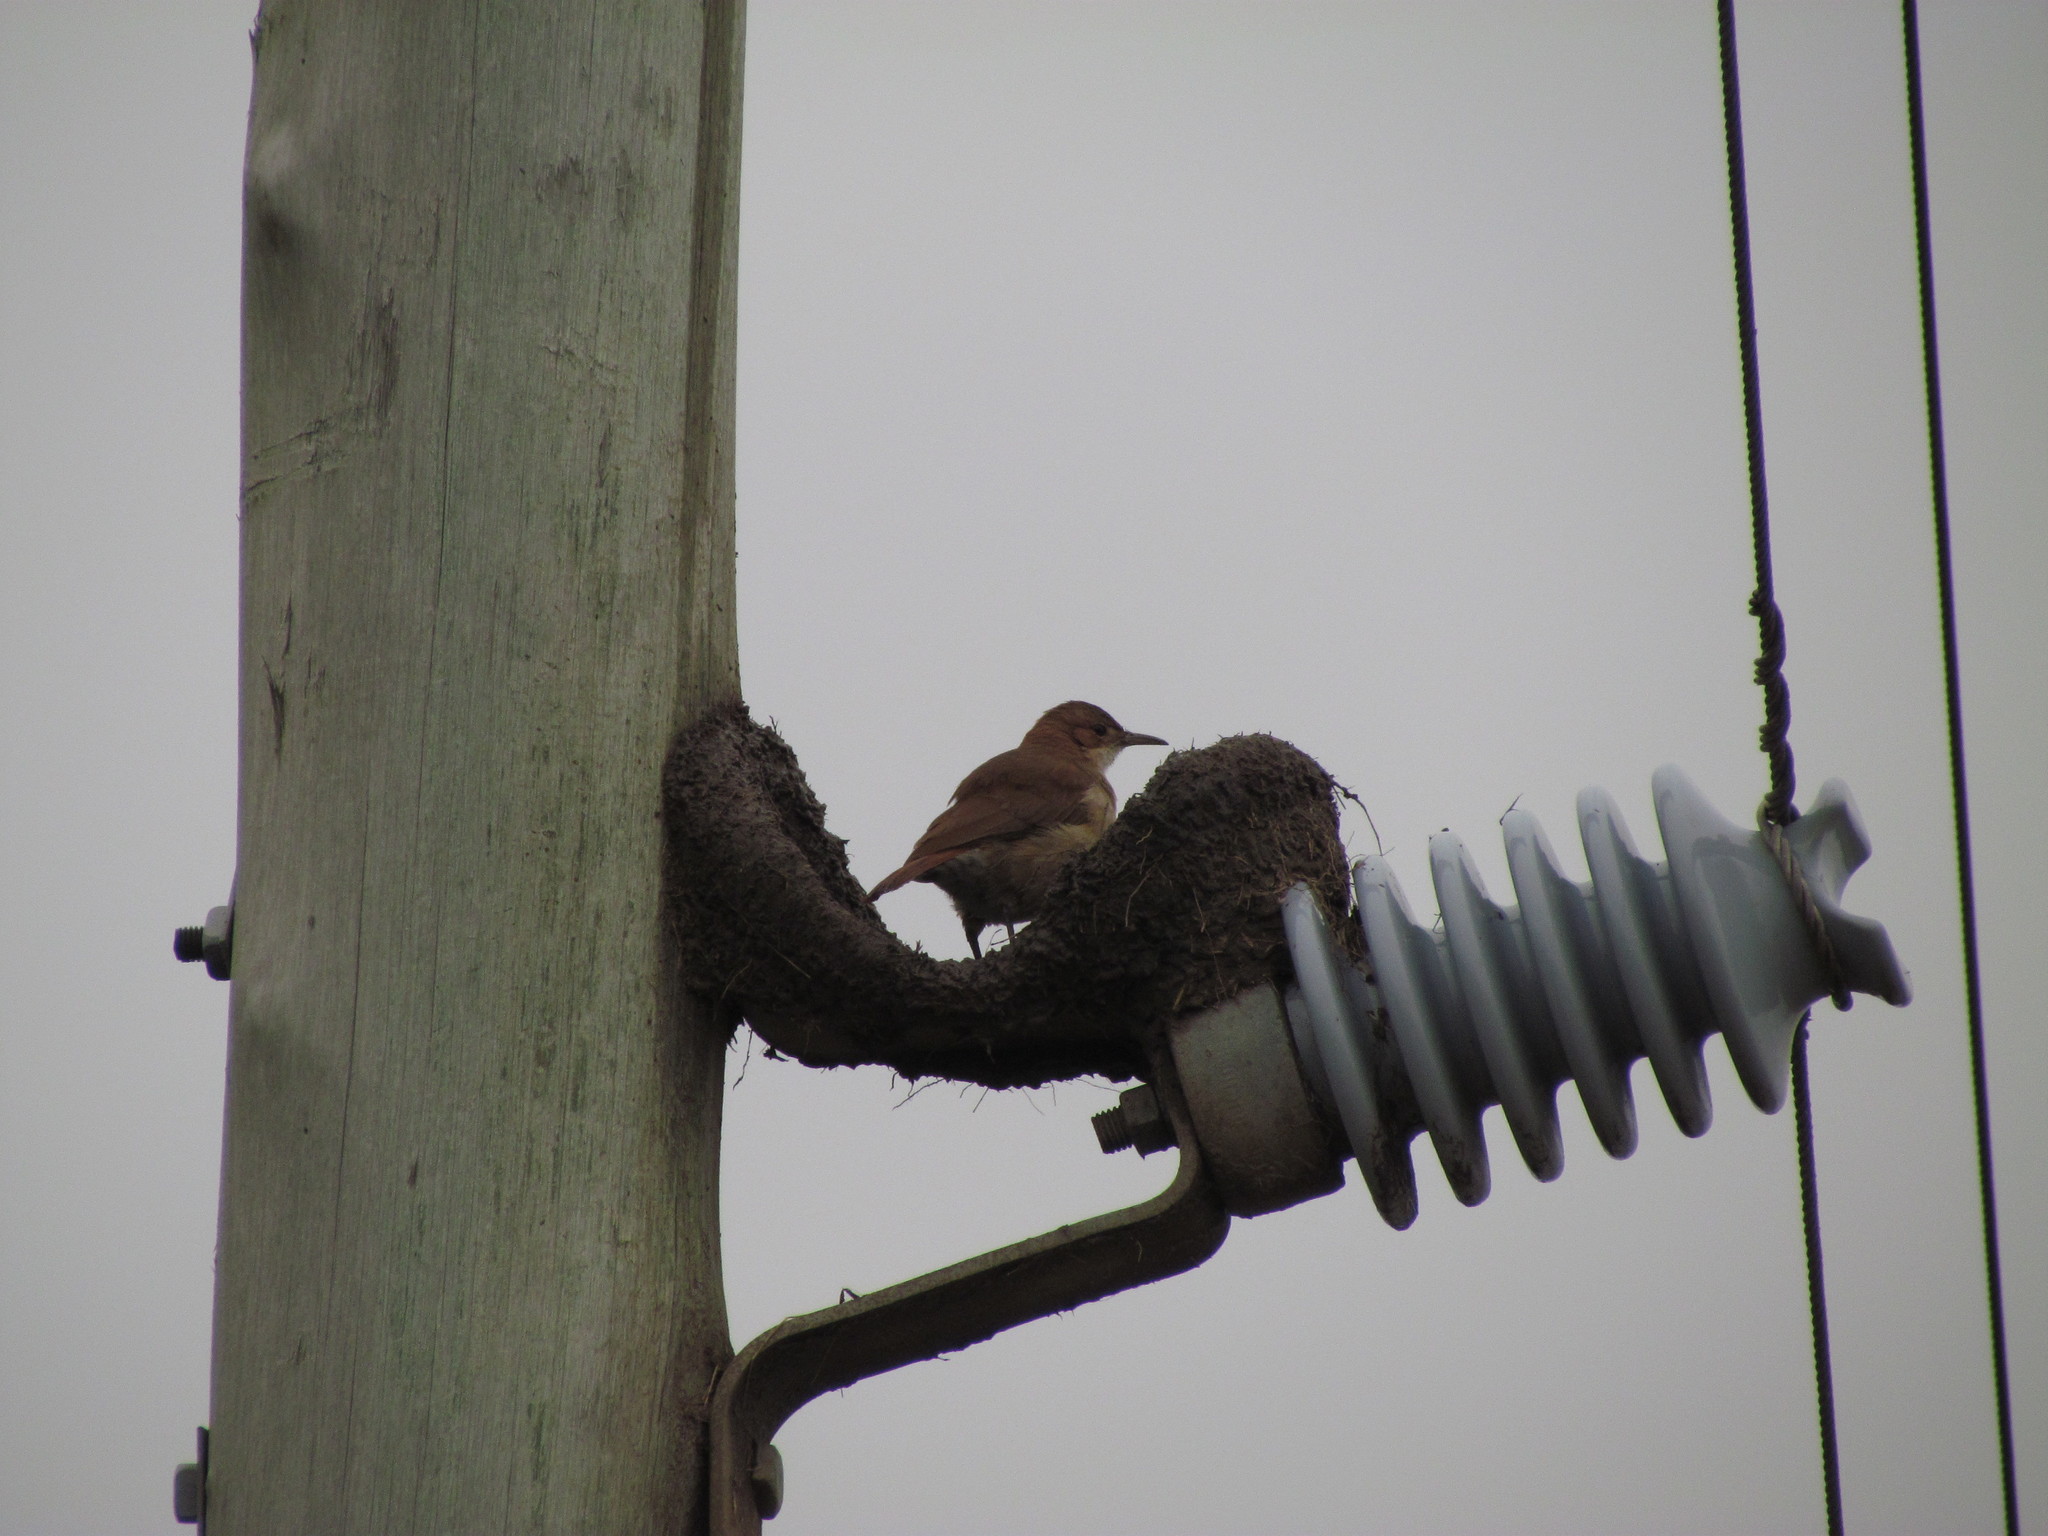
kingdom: Animalia
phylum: Chordata
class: Aves
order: Passeriformes
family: Furnariidae
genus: Furnarius
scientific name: Furnarius rufus
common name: Rufous hornero
